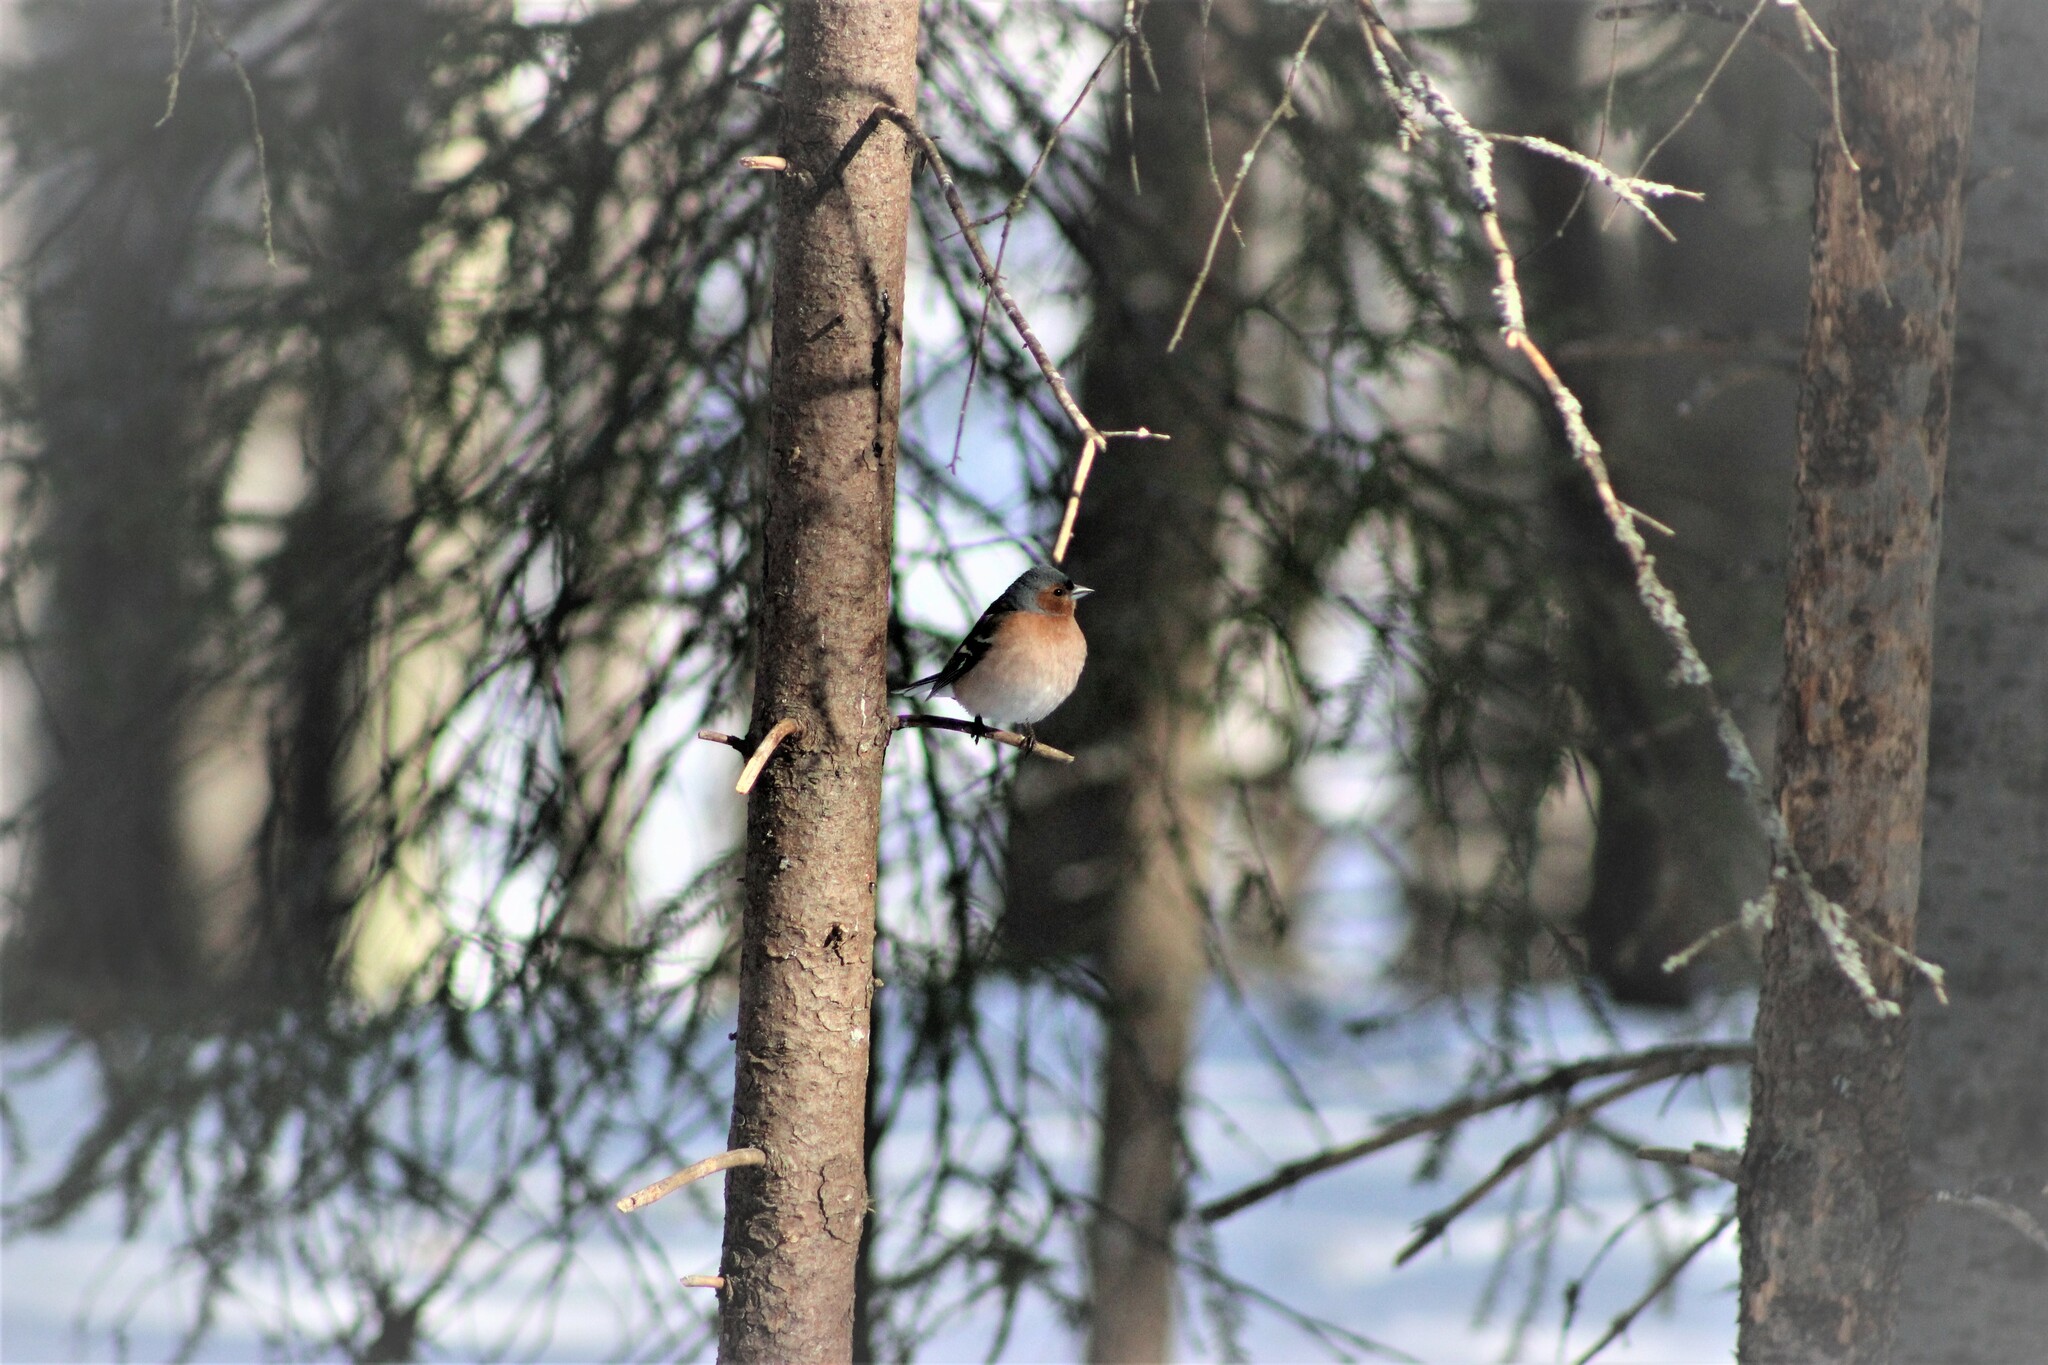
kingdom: Animalia
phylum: Chordata
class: Aves
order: Passeriformes
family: Fringillidae
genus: Fringilla
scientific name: Fringilla coelebs
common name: Common chaffinch
